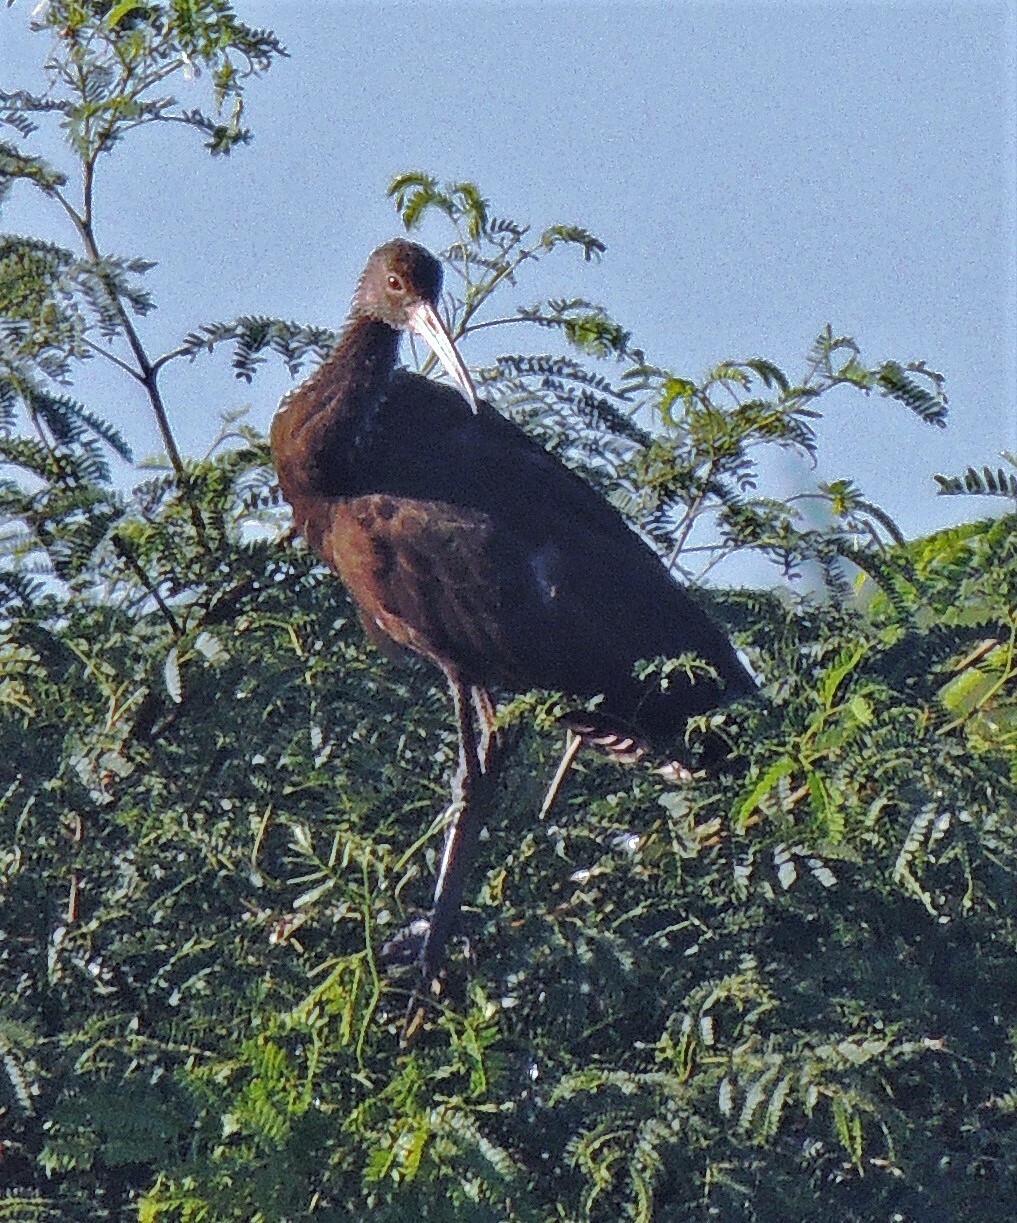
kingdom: Animalia
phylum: Chordata
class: Aves
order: Gruiformes
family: Aramidae
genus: Aramus
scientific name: Aramus guarauna
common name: Limpkin
